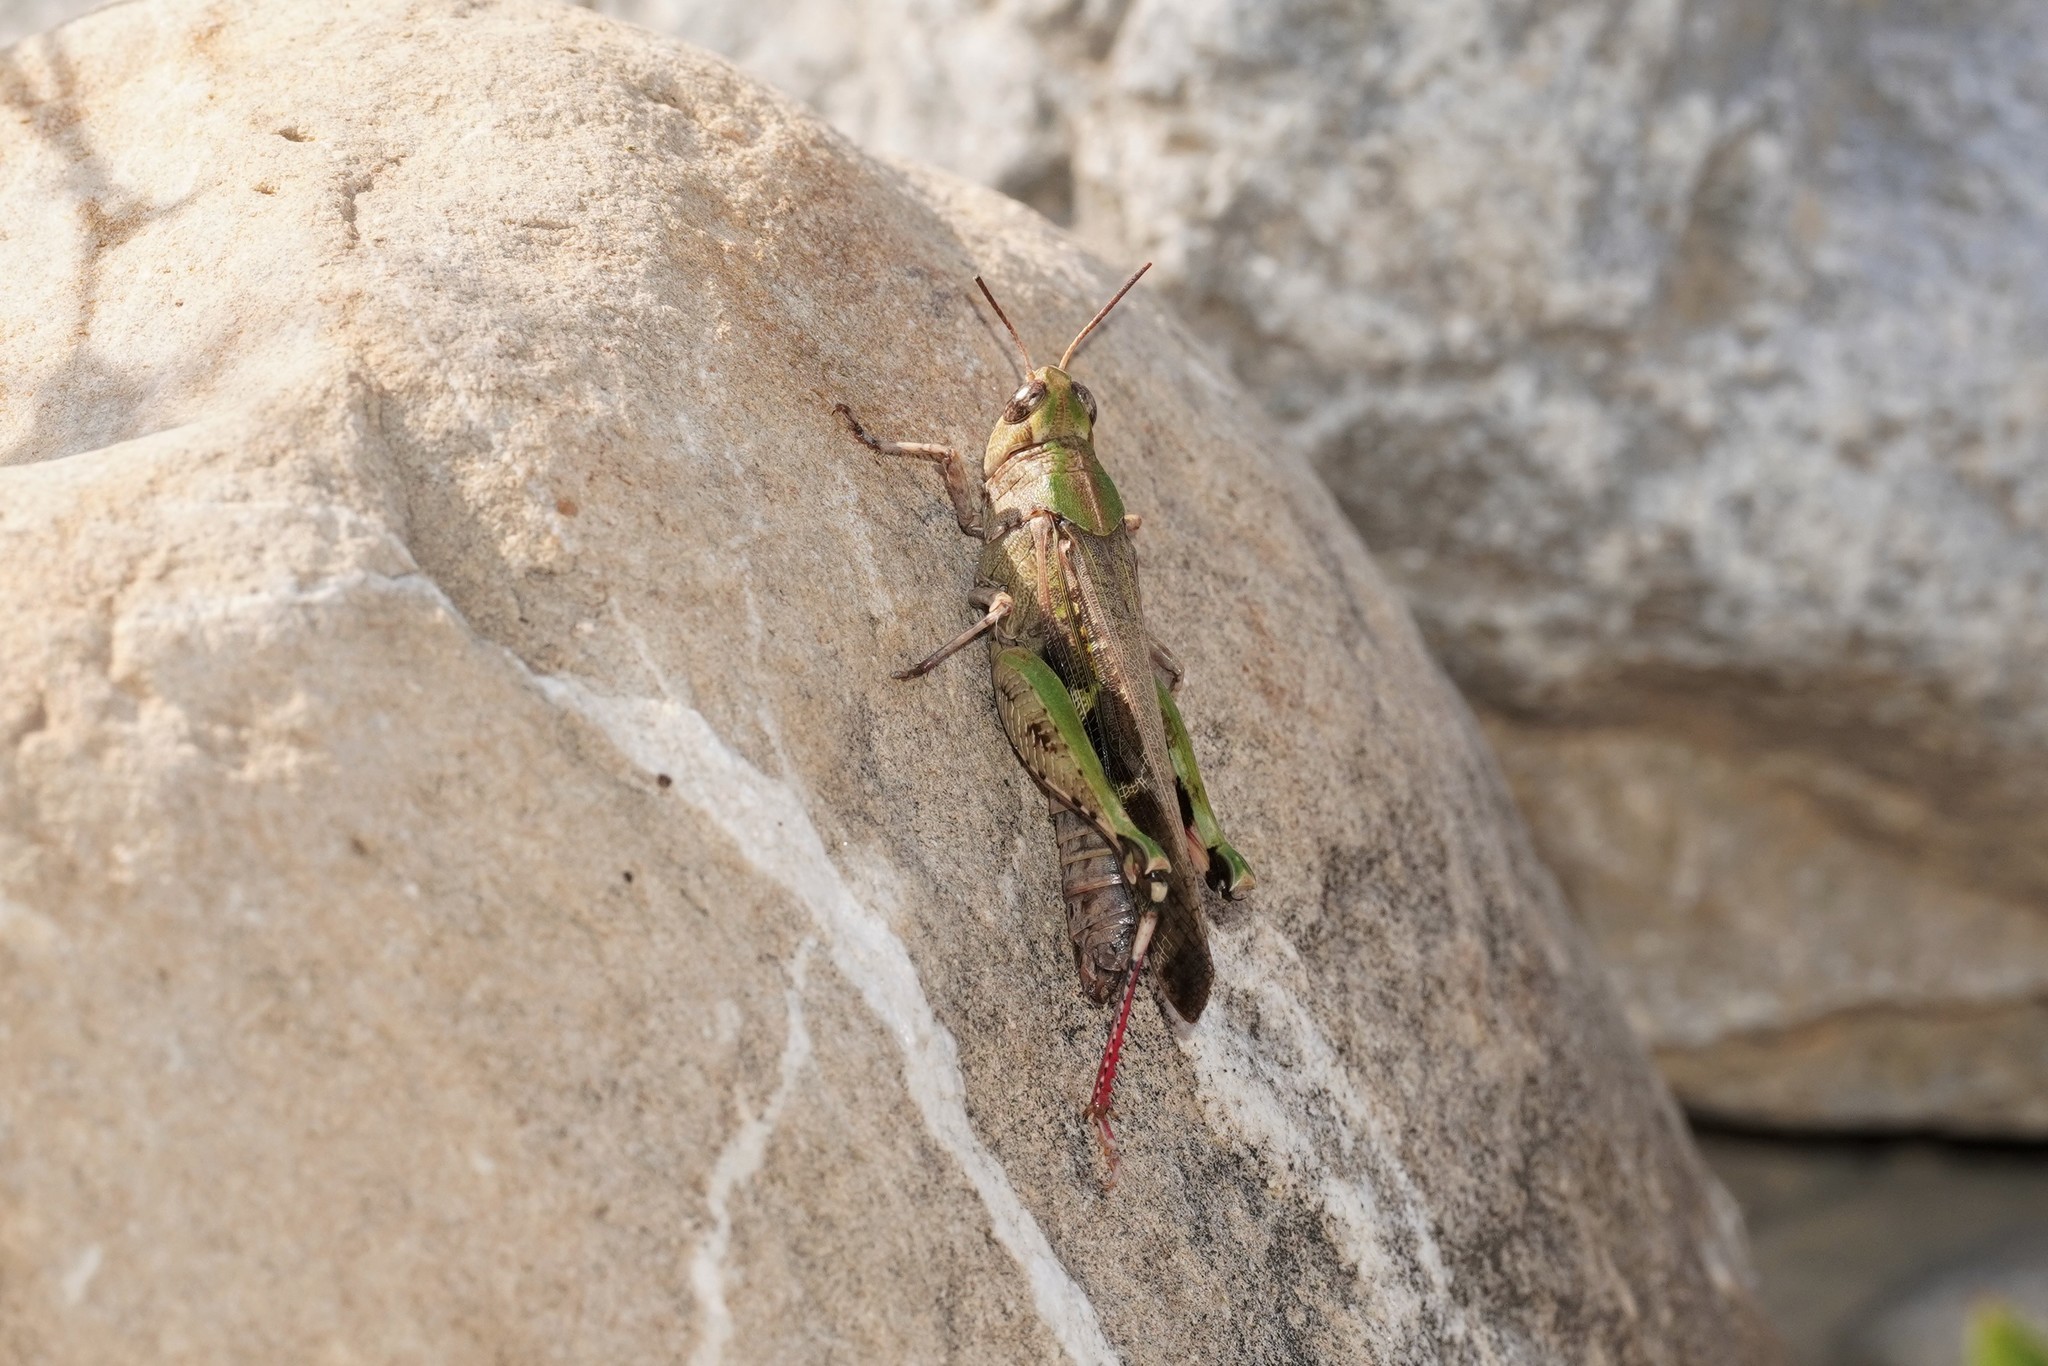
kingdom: Animalia
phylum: Arthropoda
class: Insecta
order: Orthoptera
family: Acrididae
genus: Aiolopus
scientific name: Aiolopus strepens
